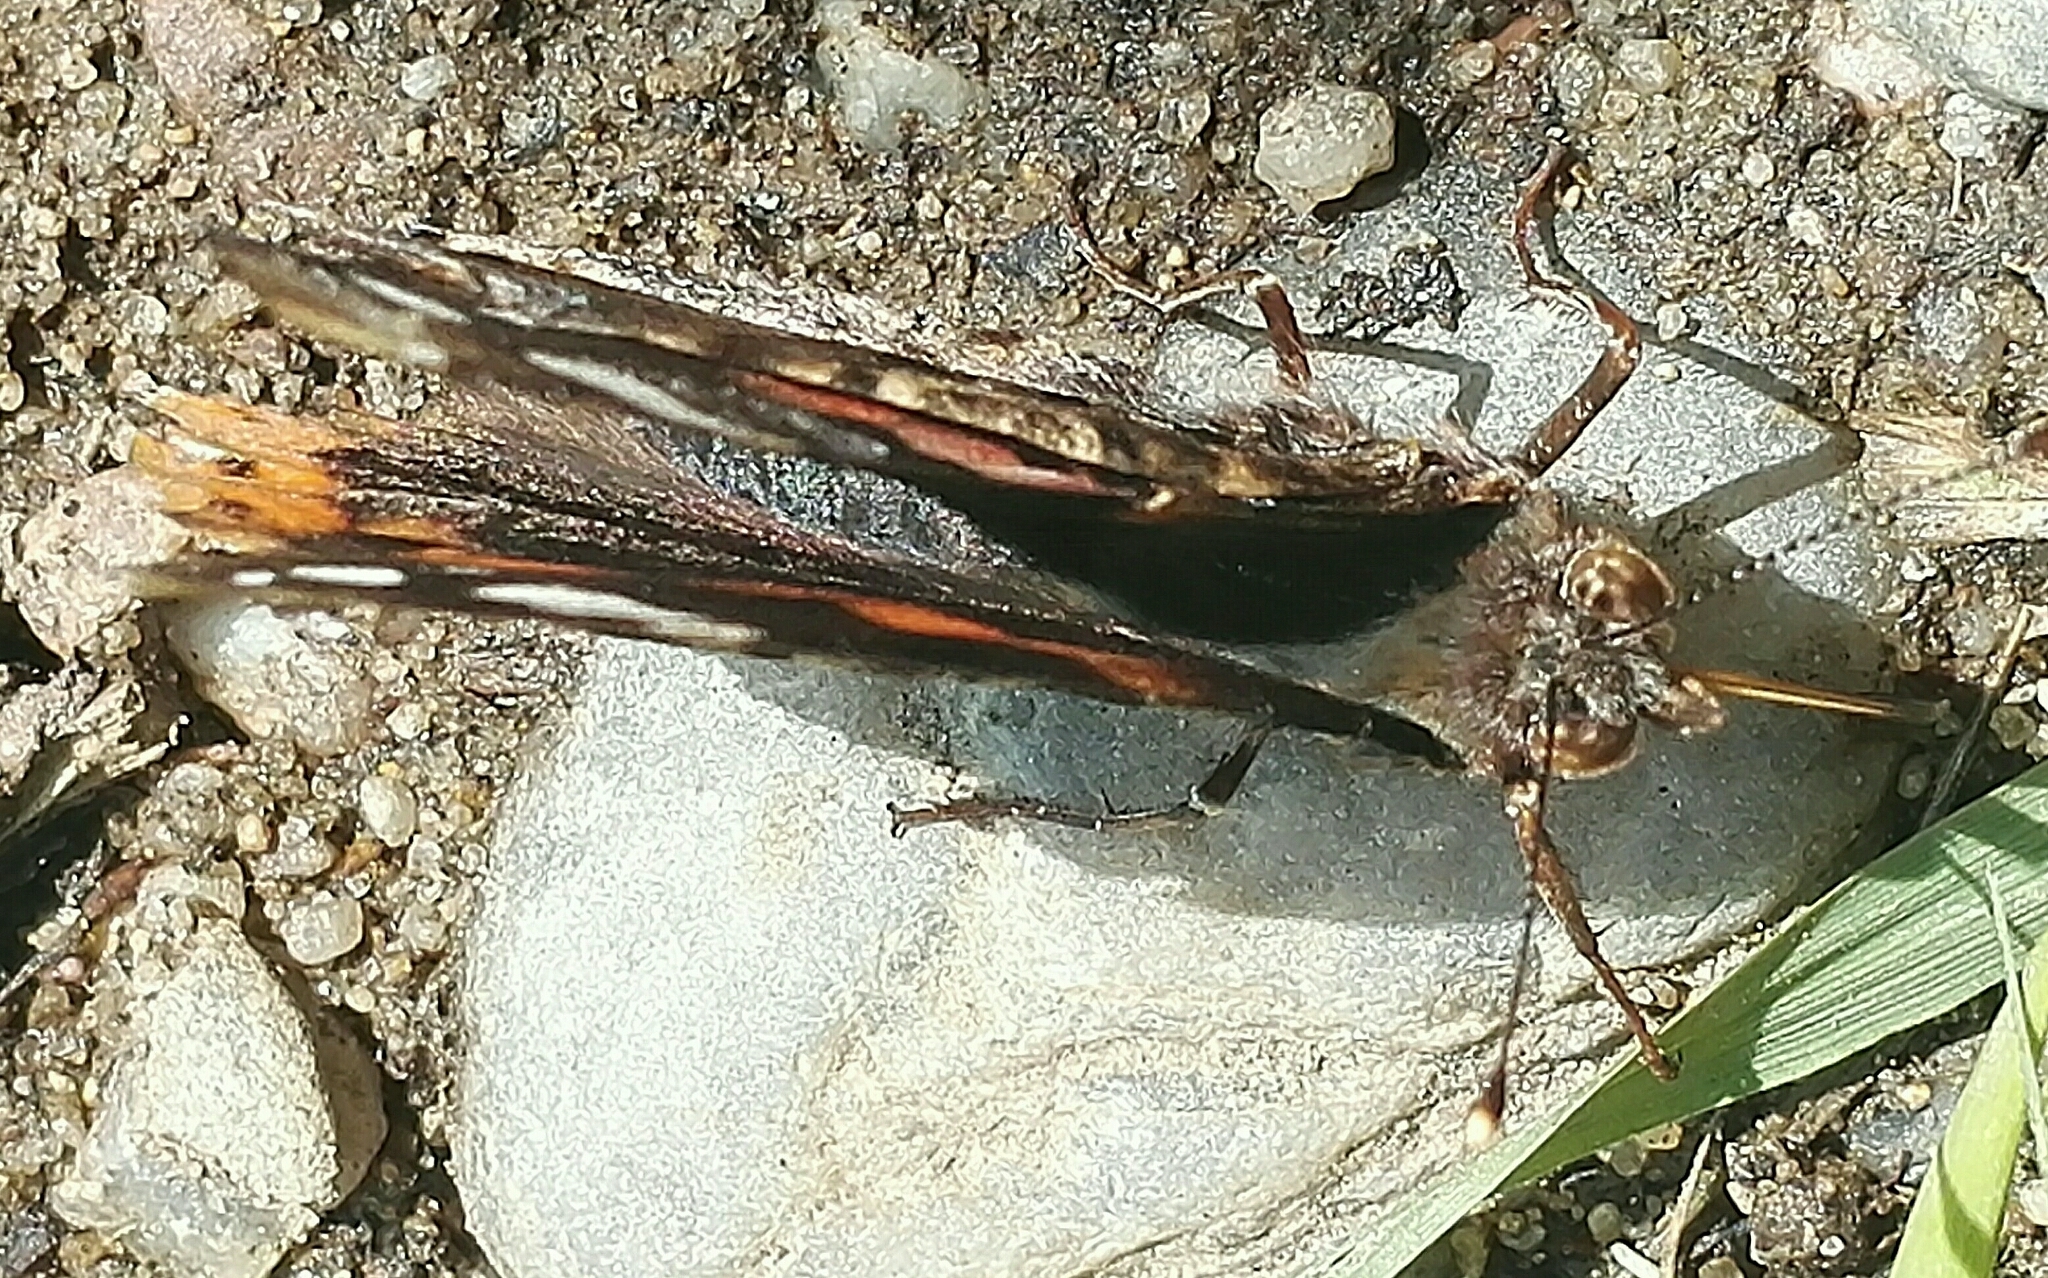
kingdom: Animalia
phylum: Arthropoda
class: Insecta
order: Lepidoptera
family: Nymphalidae
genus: Vanessa
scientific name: Vanessa atalanta
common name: Red admiral
